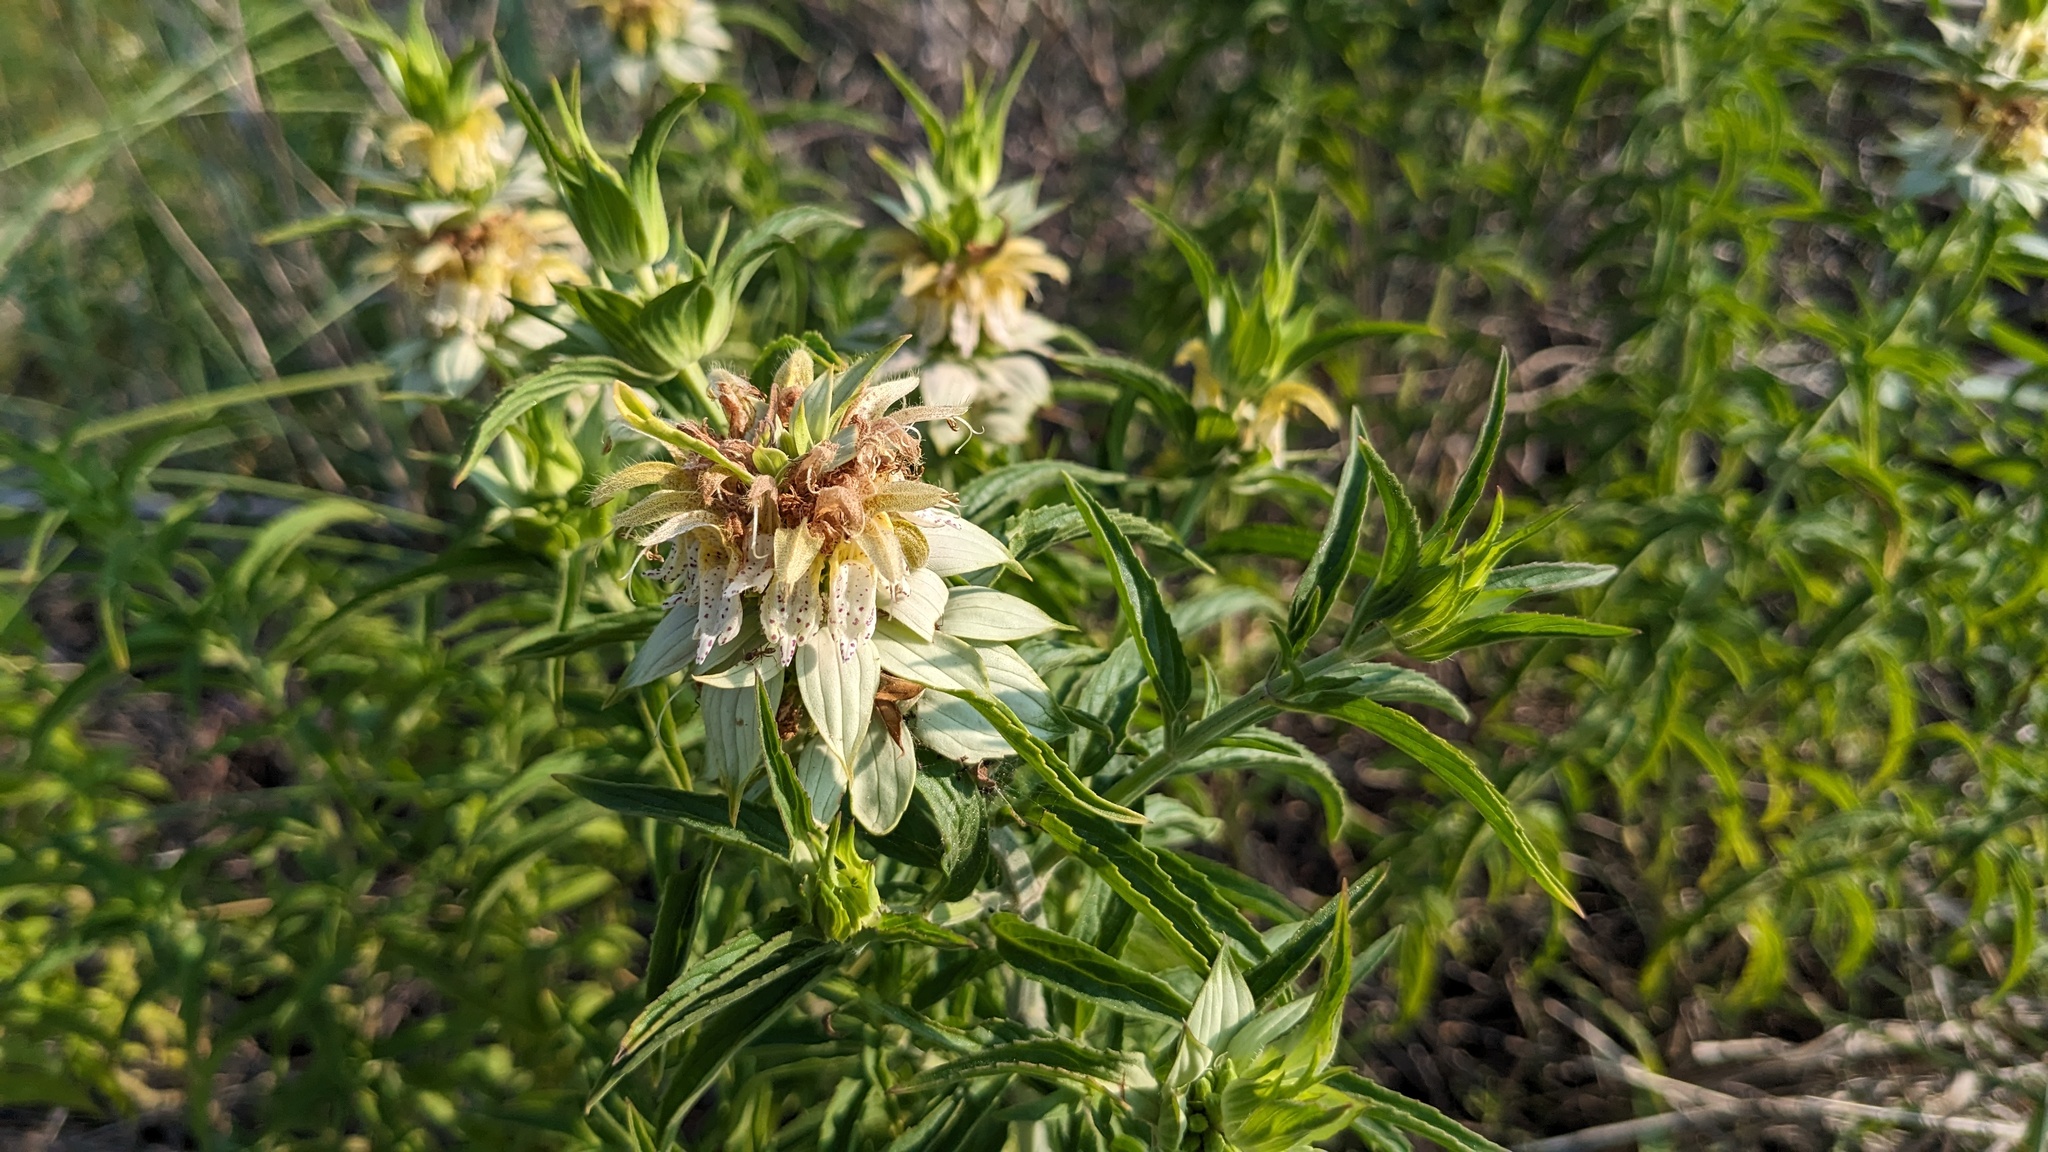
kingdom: Plantae
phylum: Tracheophyta
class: Magnoliopsida
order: Lamiales
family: Lamiaceae
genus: Monarda
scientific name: Monarda punctata
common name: Dotted monarda
